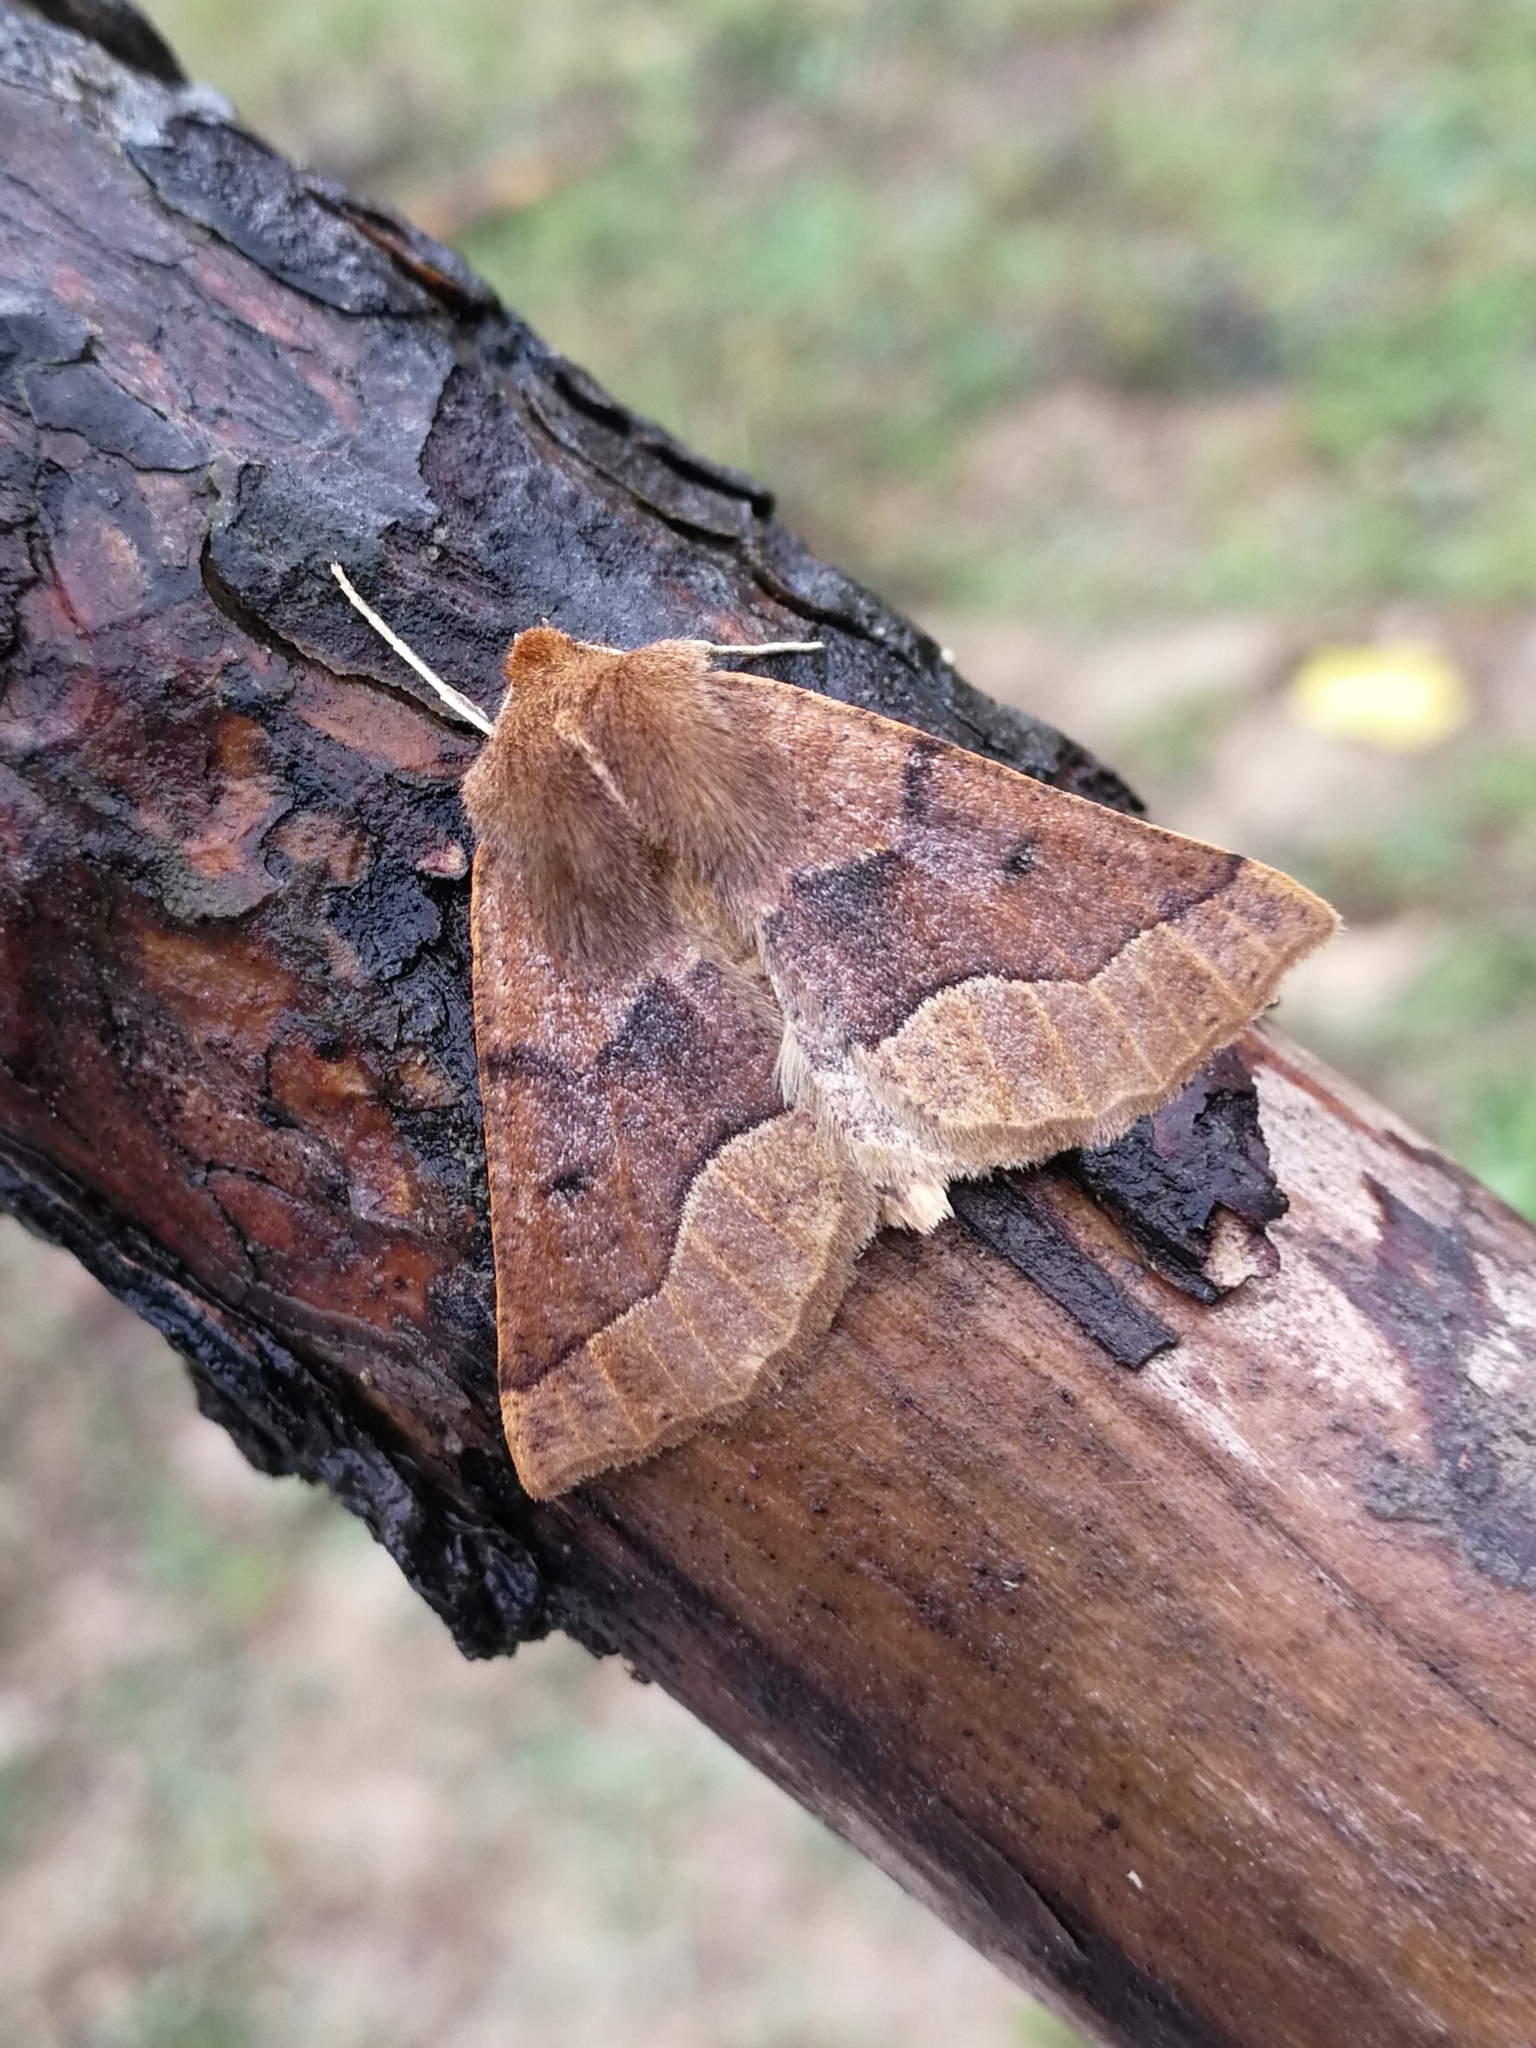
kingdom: Animalia
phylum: Arthropoda
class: Insecta
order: Lepidoptera
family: Geometridae
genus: Crocallis
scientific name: Crocallis tusciaria
